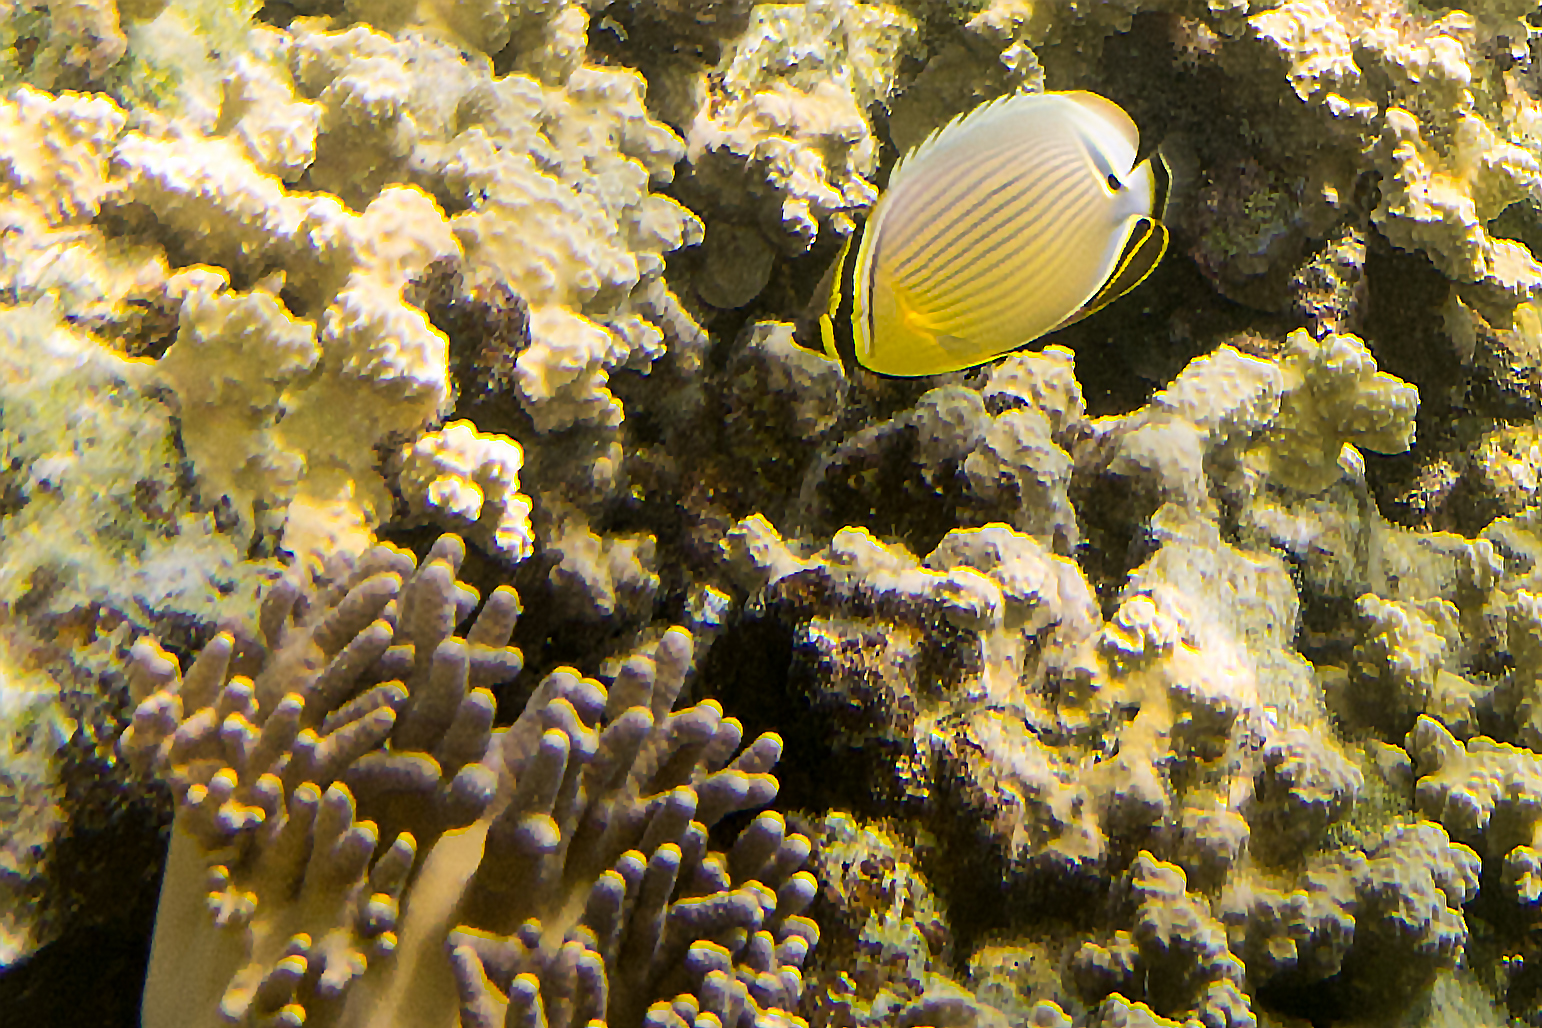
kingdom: Animalia
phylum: Chordata
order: Perciformes
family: Chaetodontidae
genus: Chaetodon
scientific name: Chaetodon lunulatus
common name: Redfin butterflyfish
